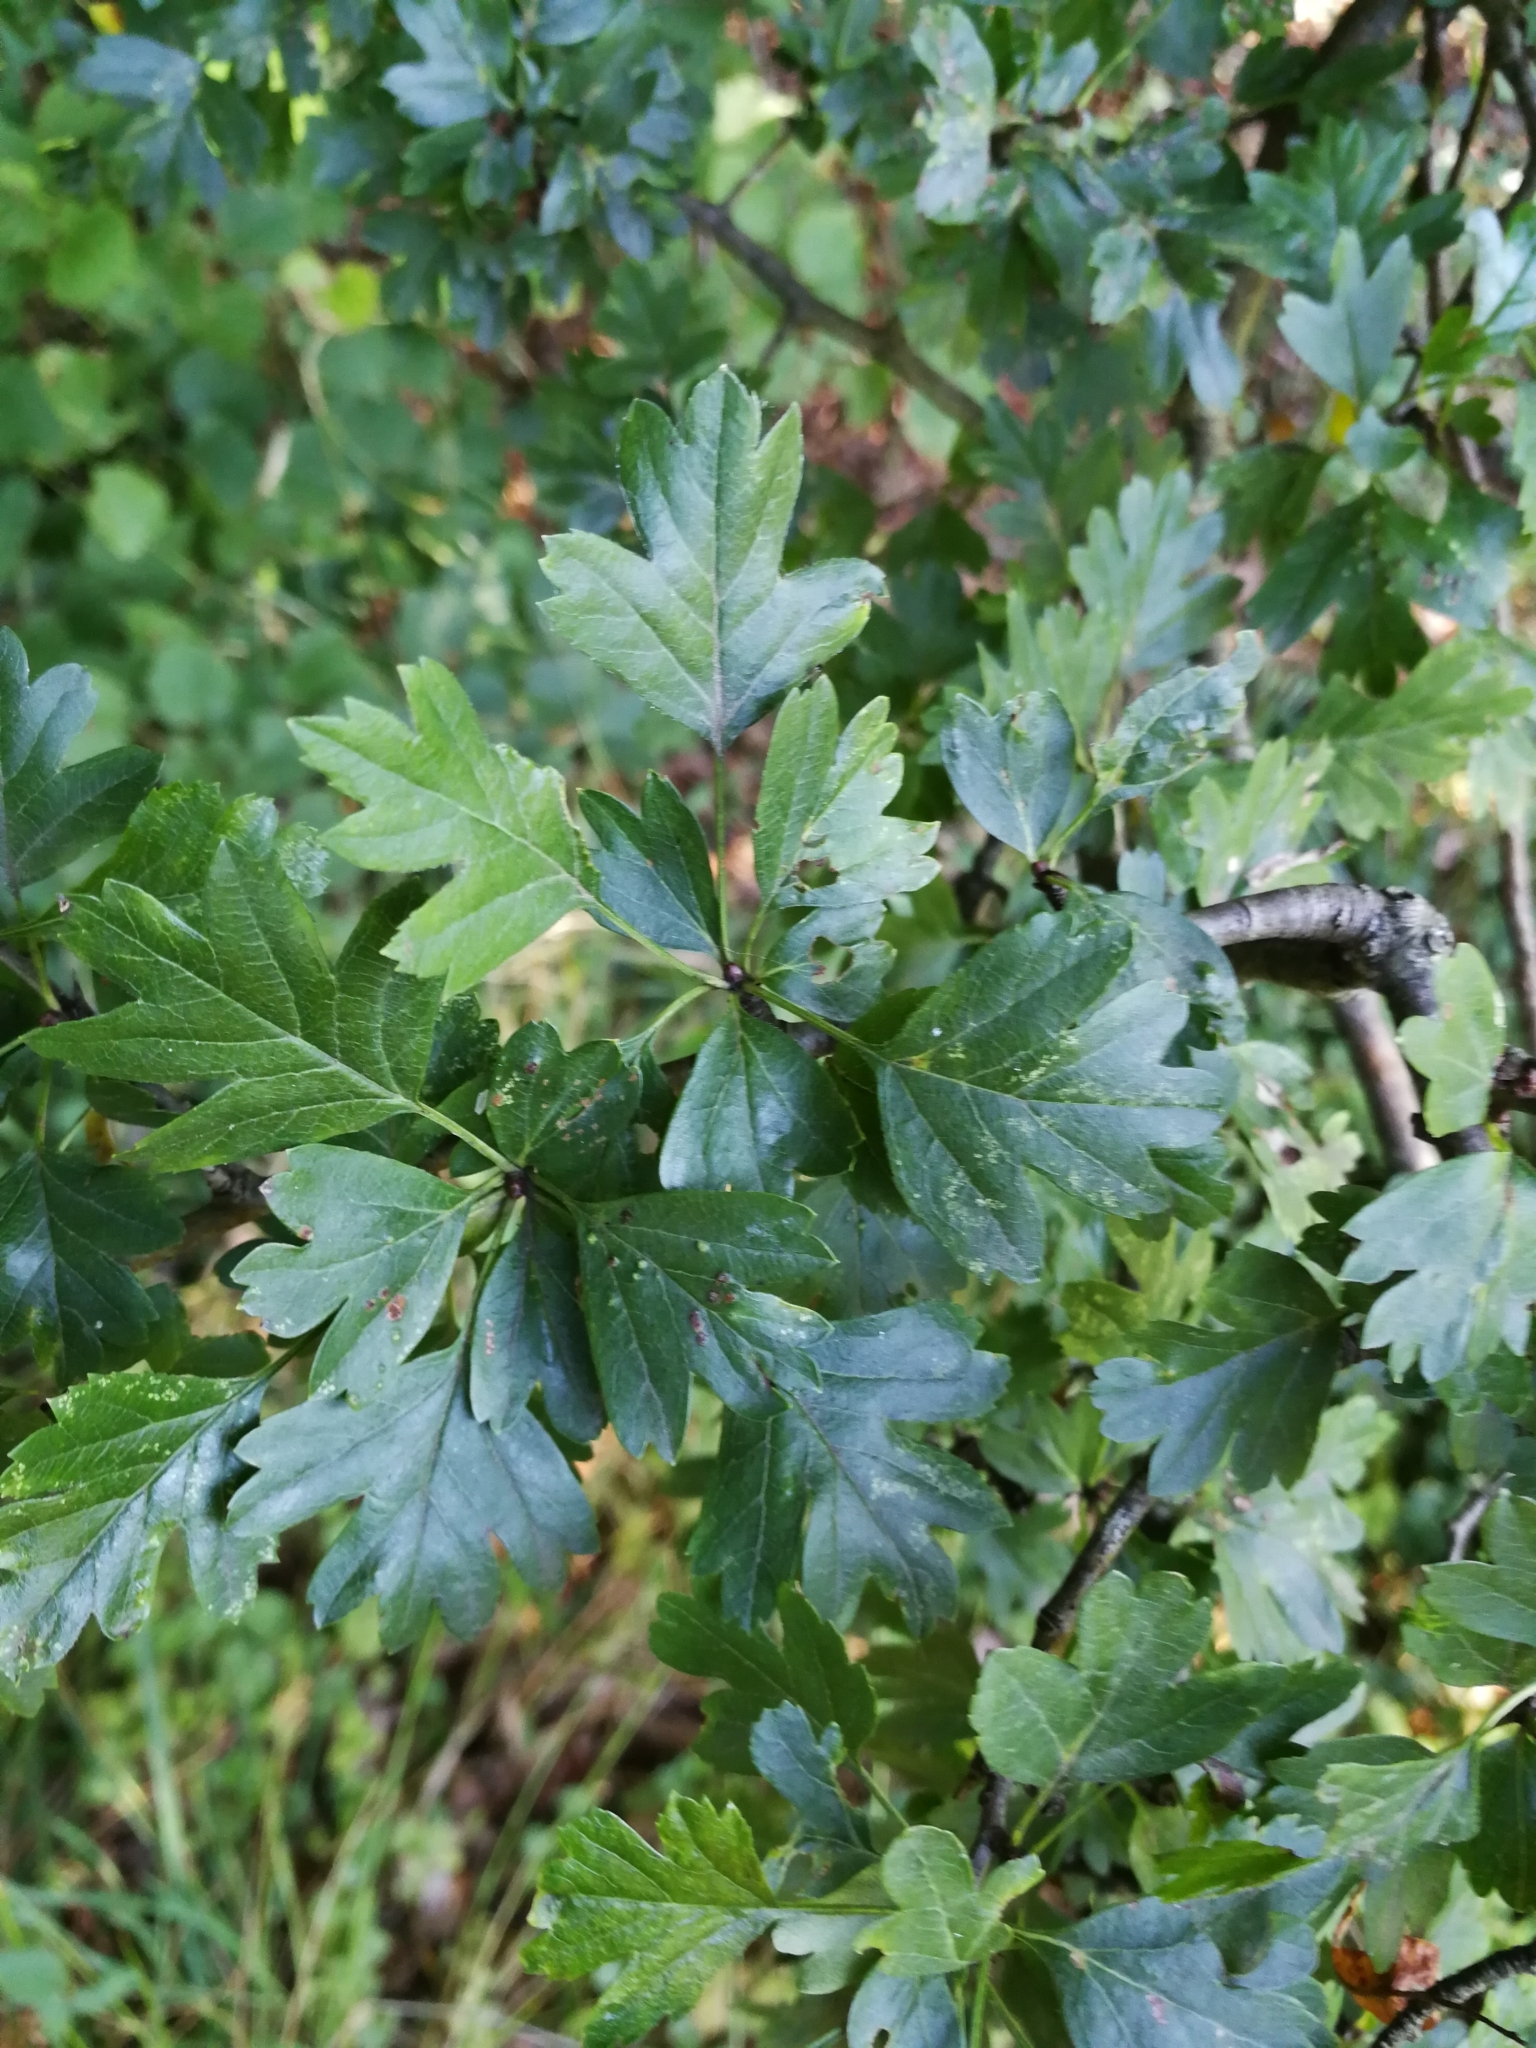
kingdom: Plantae
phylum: Tracheophyta
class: Magnoliopsida
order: Rosales
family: Rosaceae
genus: Crataegus
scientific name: Crataegus monogyna
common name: Hawthorn
